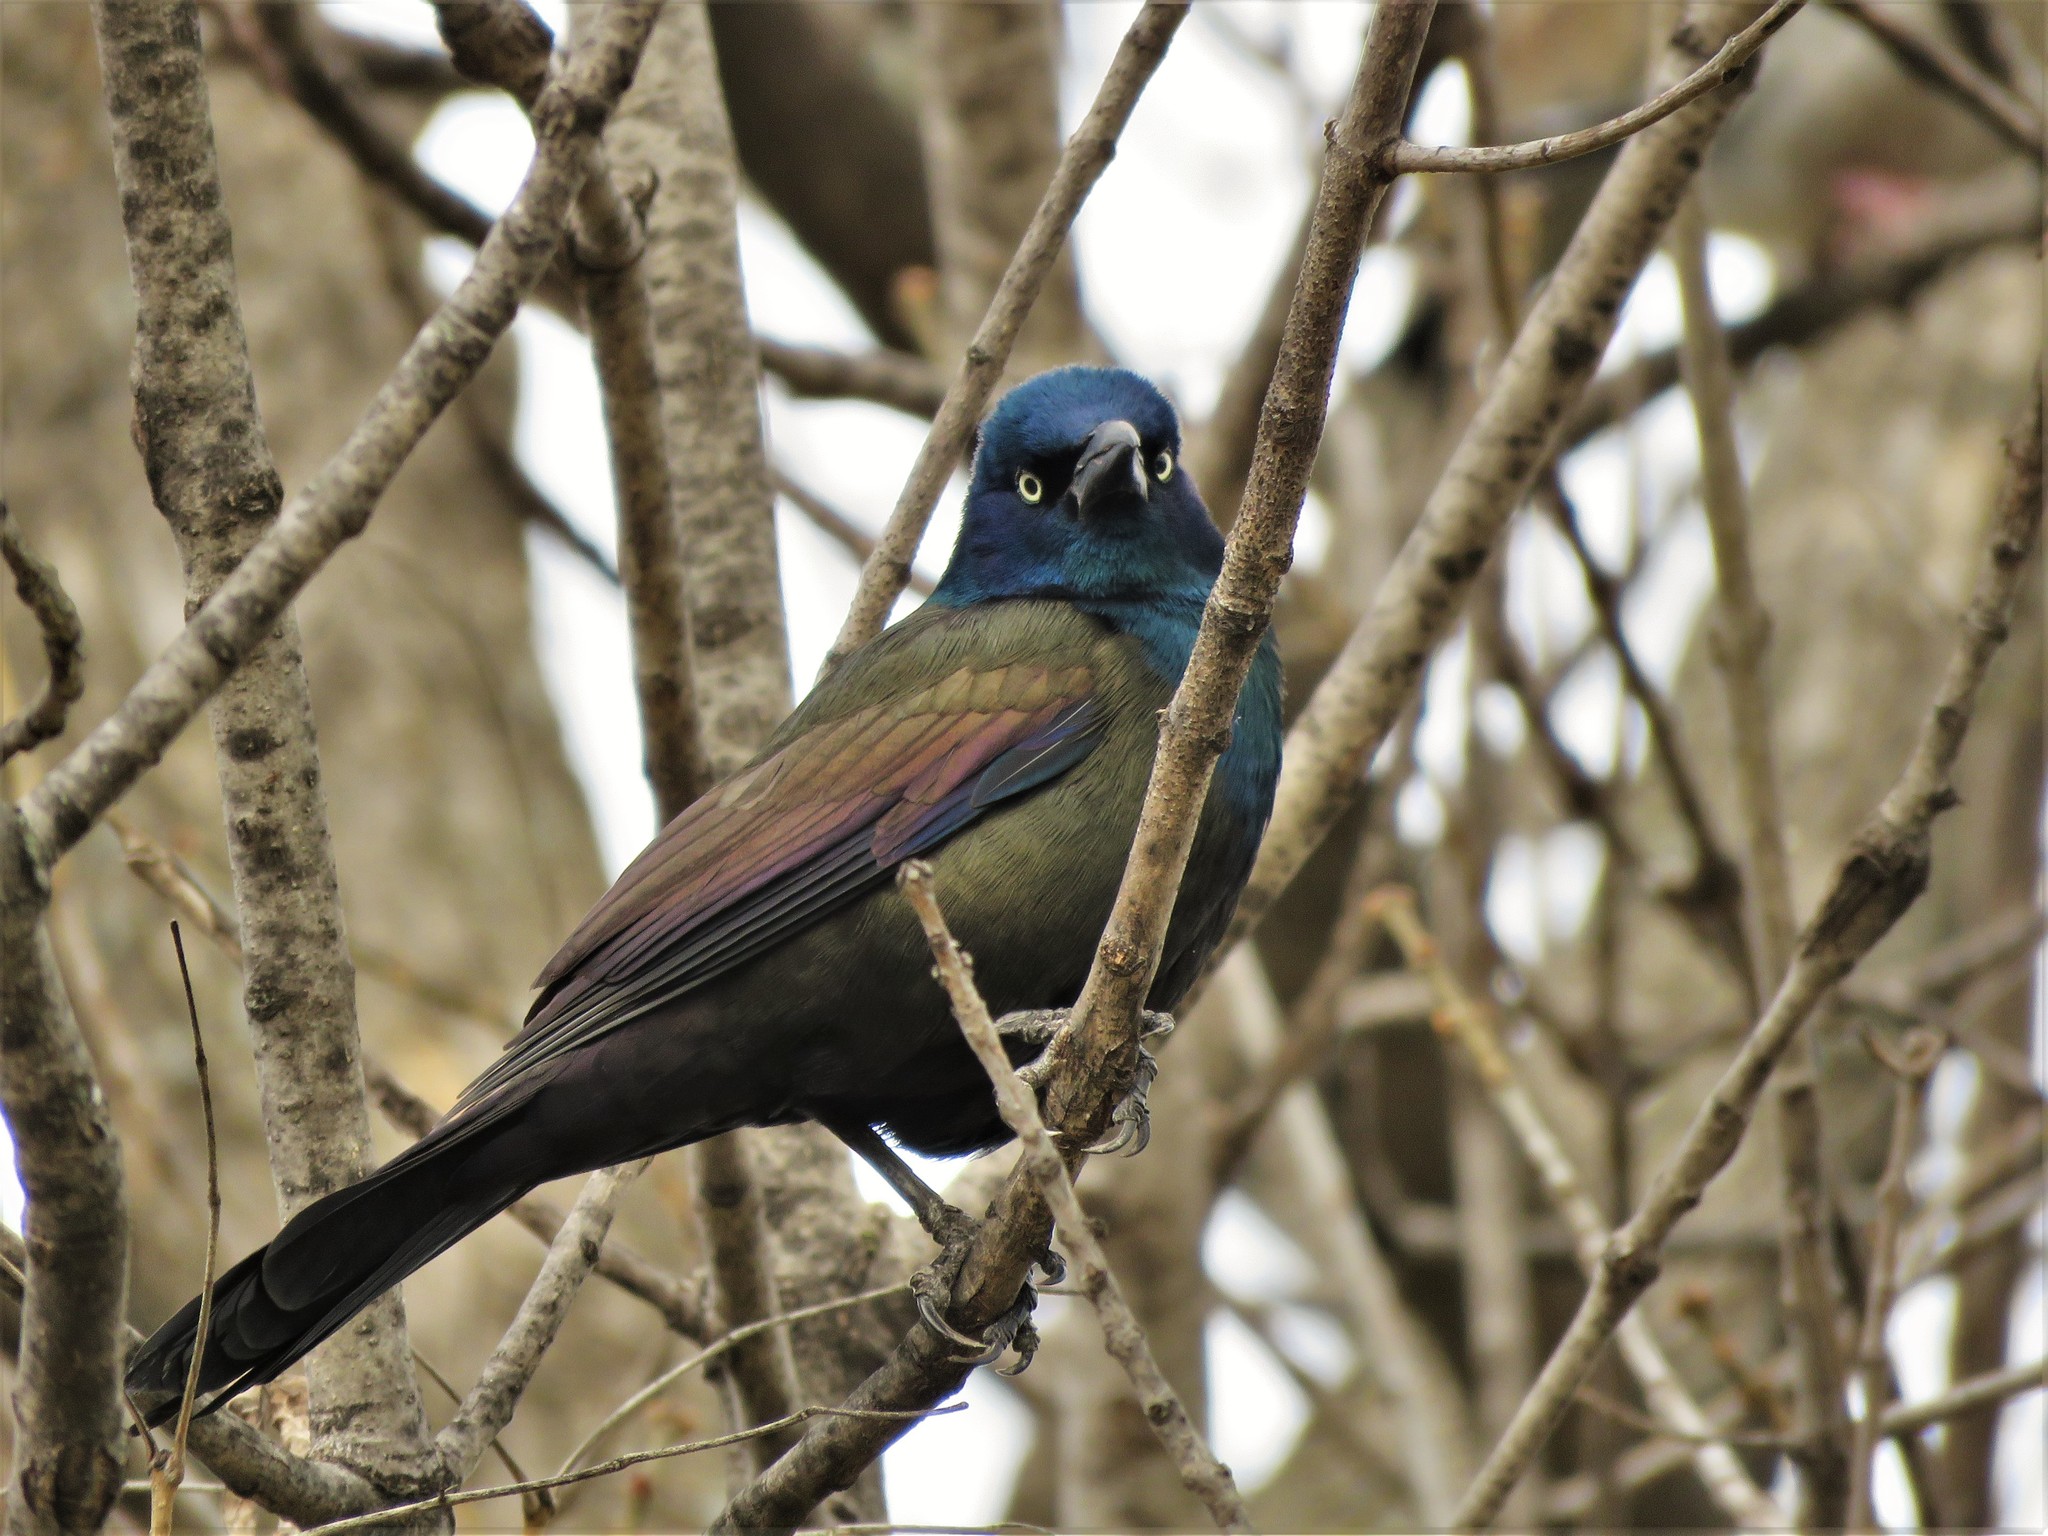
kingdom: Animalia
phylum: Chordata
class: Aves
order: Passeriformes
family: Icteridae
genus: Quiscalus
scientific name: Quiscalus quiscula
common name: Common grackle
